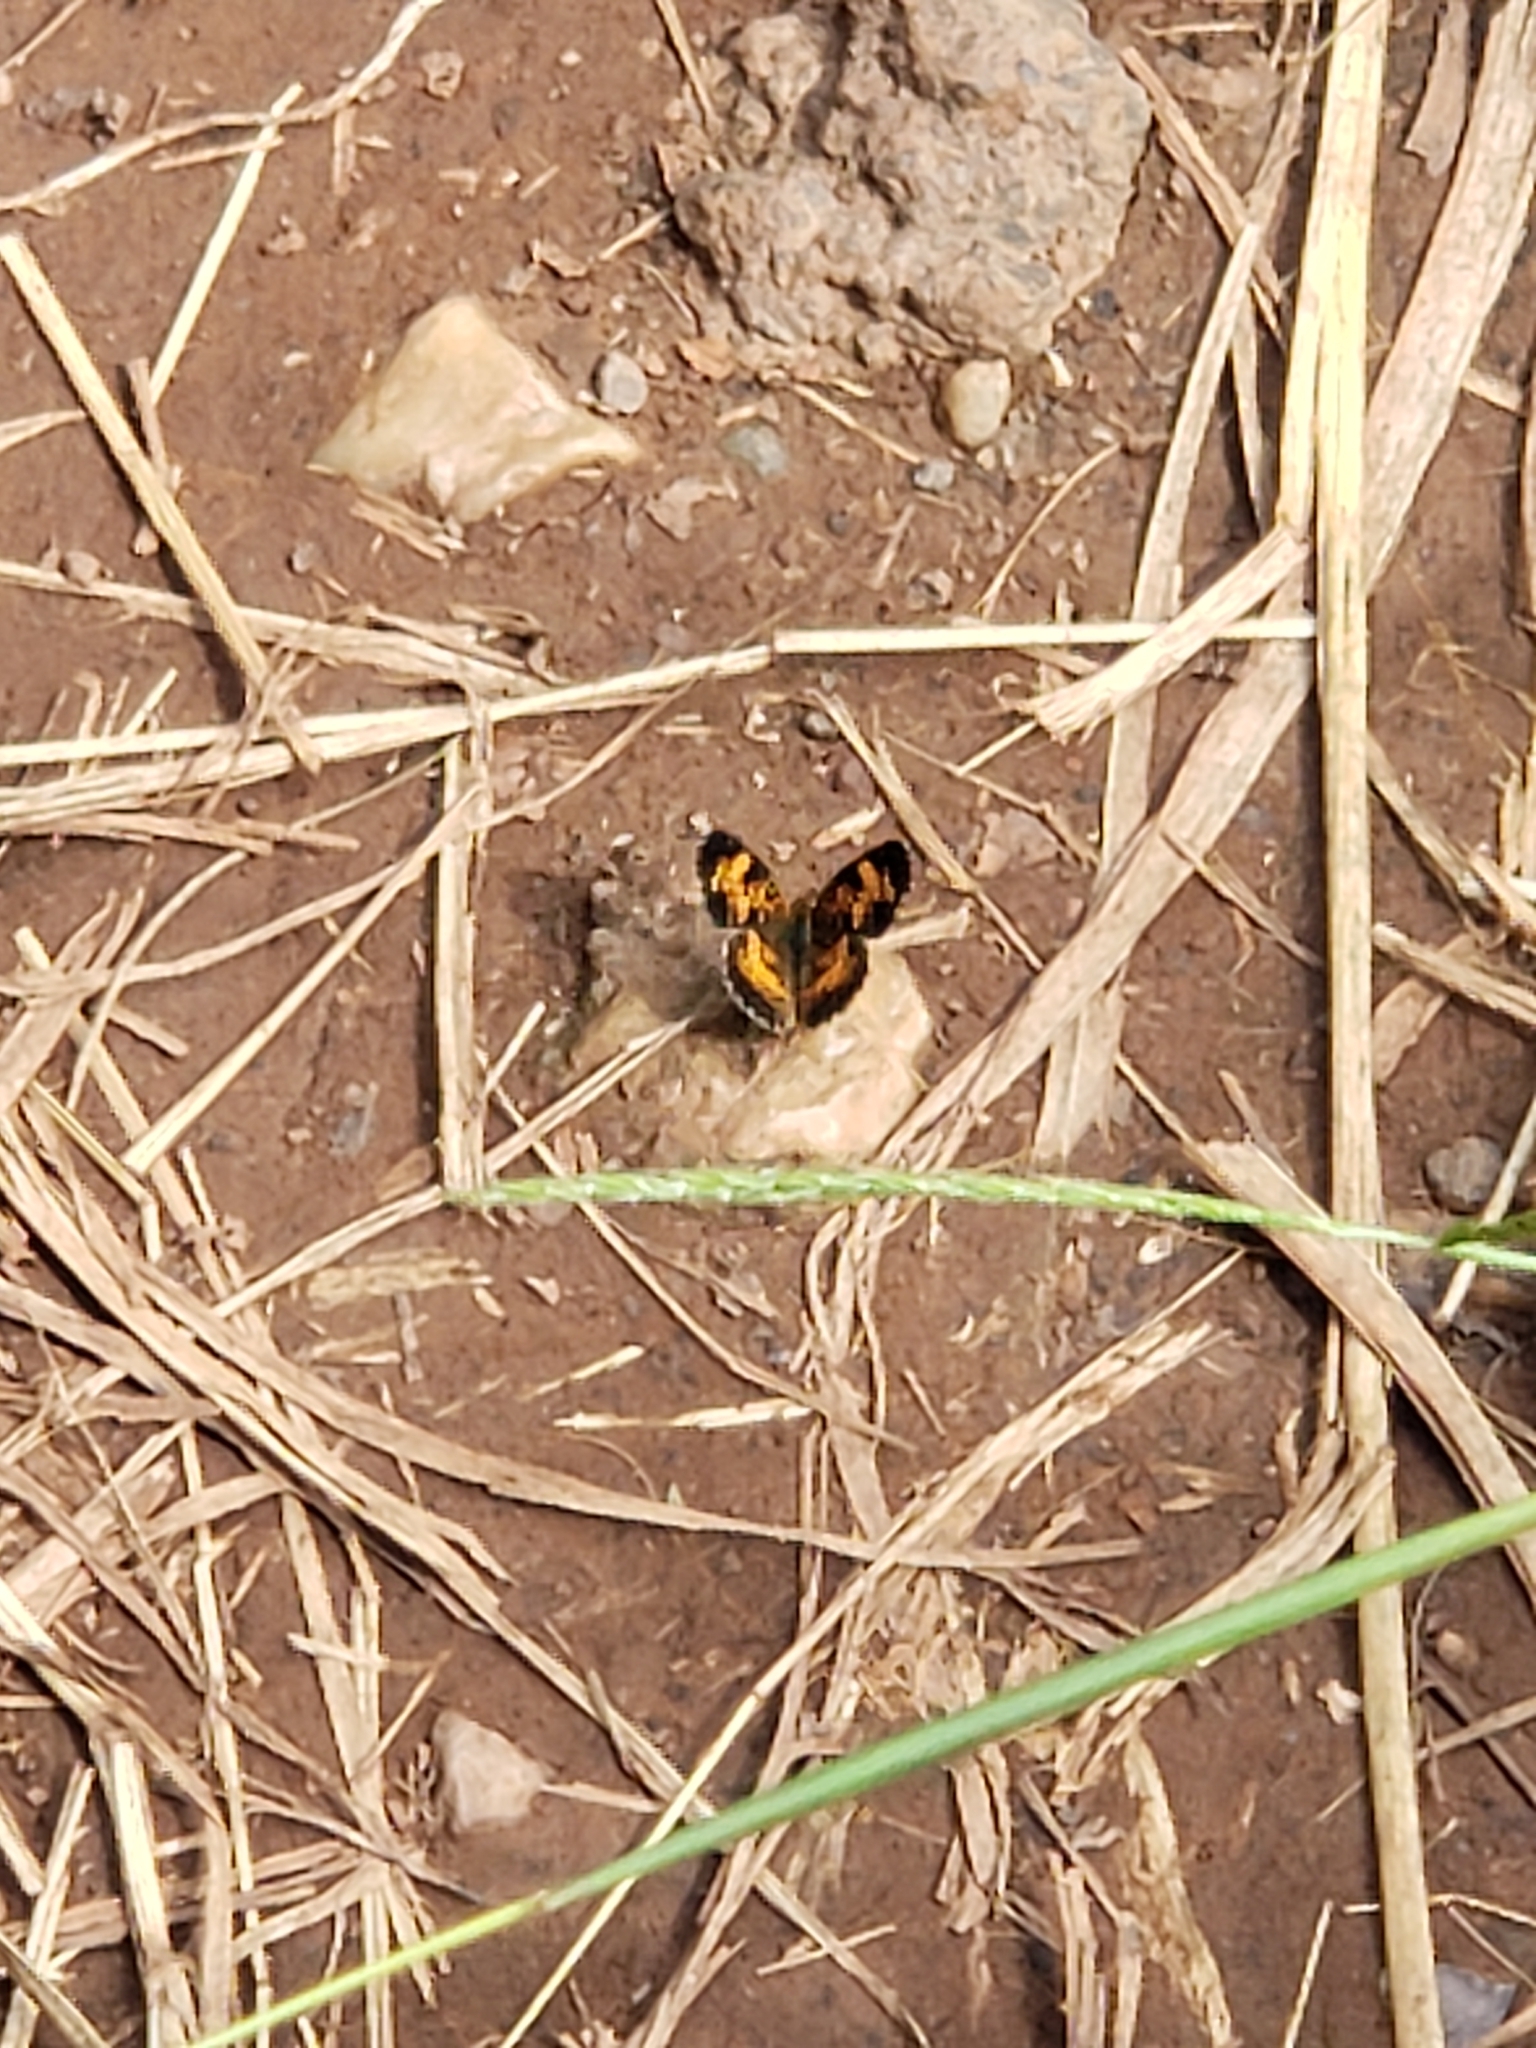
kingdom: Animalia
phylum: Arthropoda
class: Insecta
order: Lepidoptera
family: Nymphalidae
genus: Phyciodes
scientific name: Phyciodes tharos
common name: Pearl crescent
